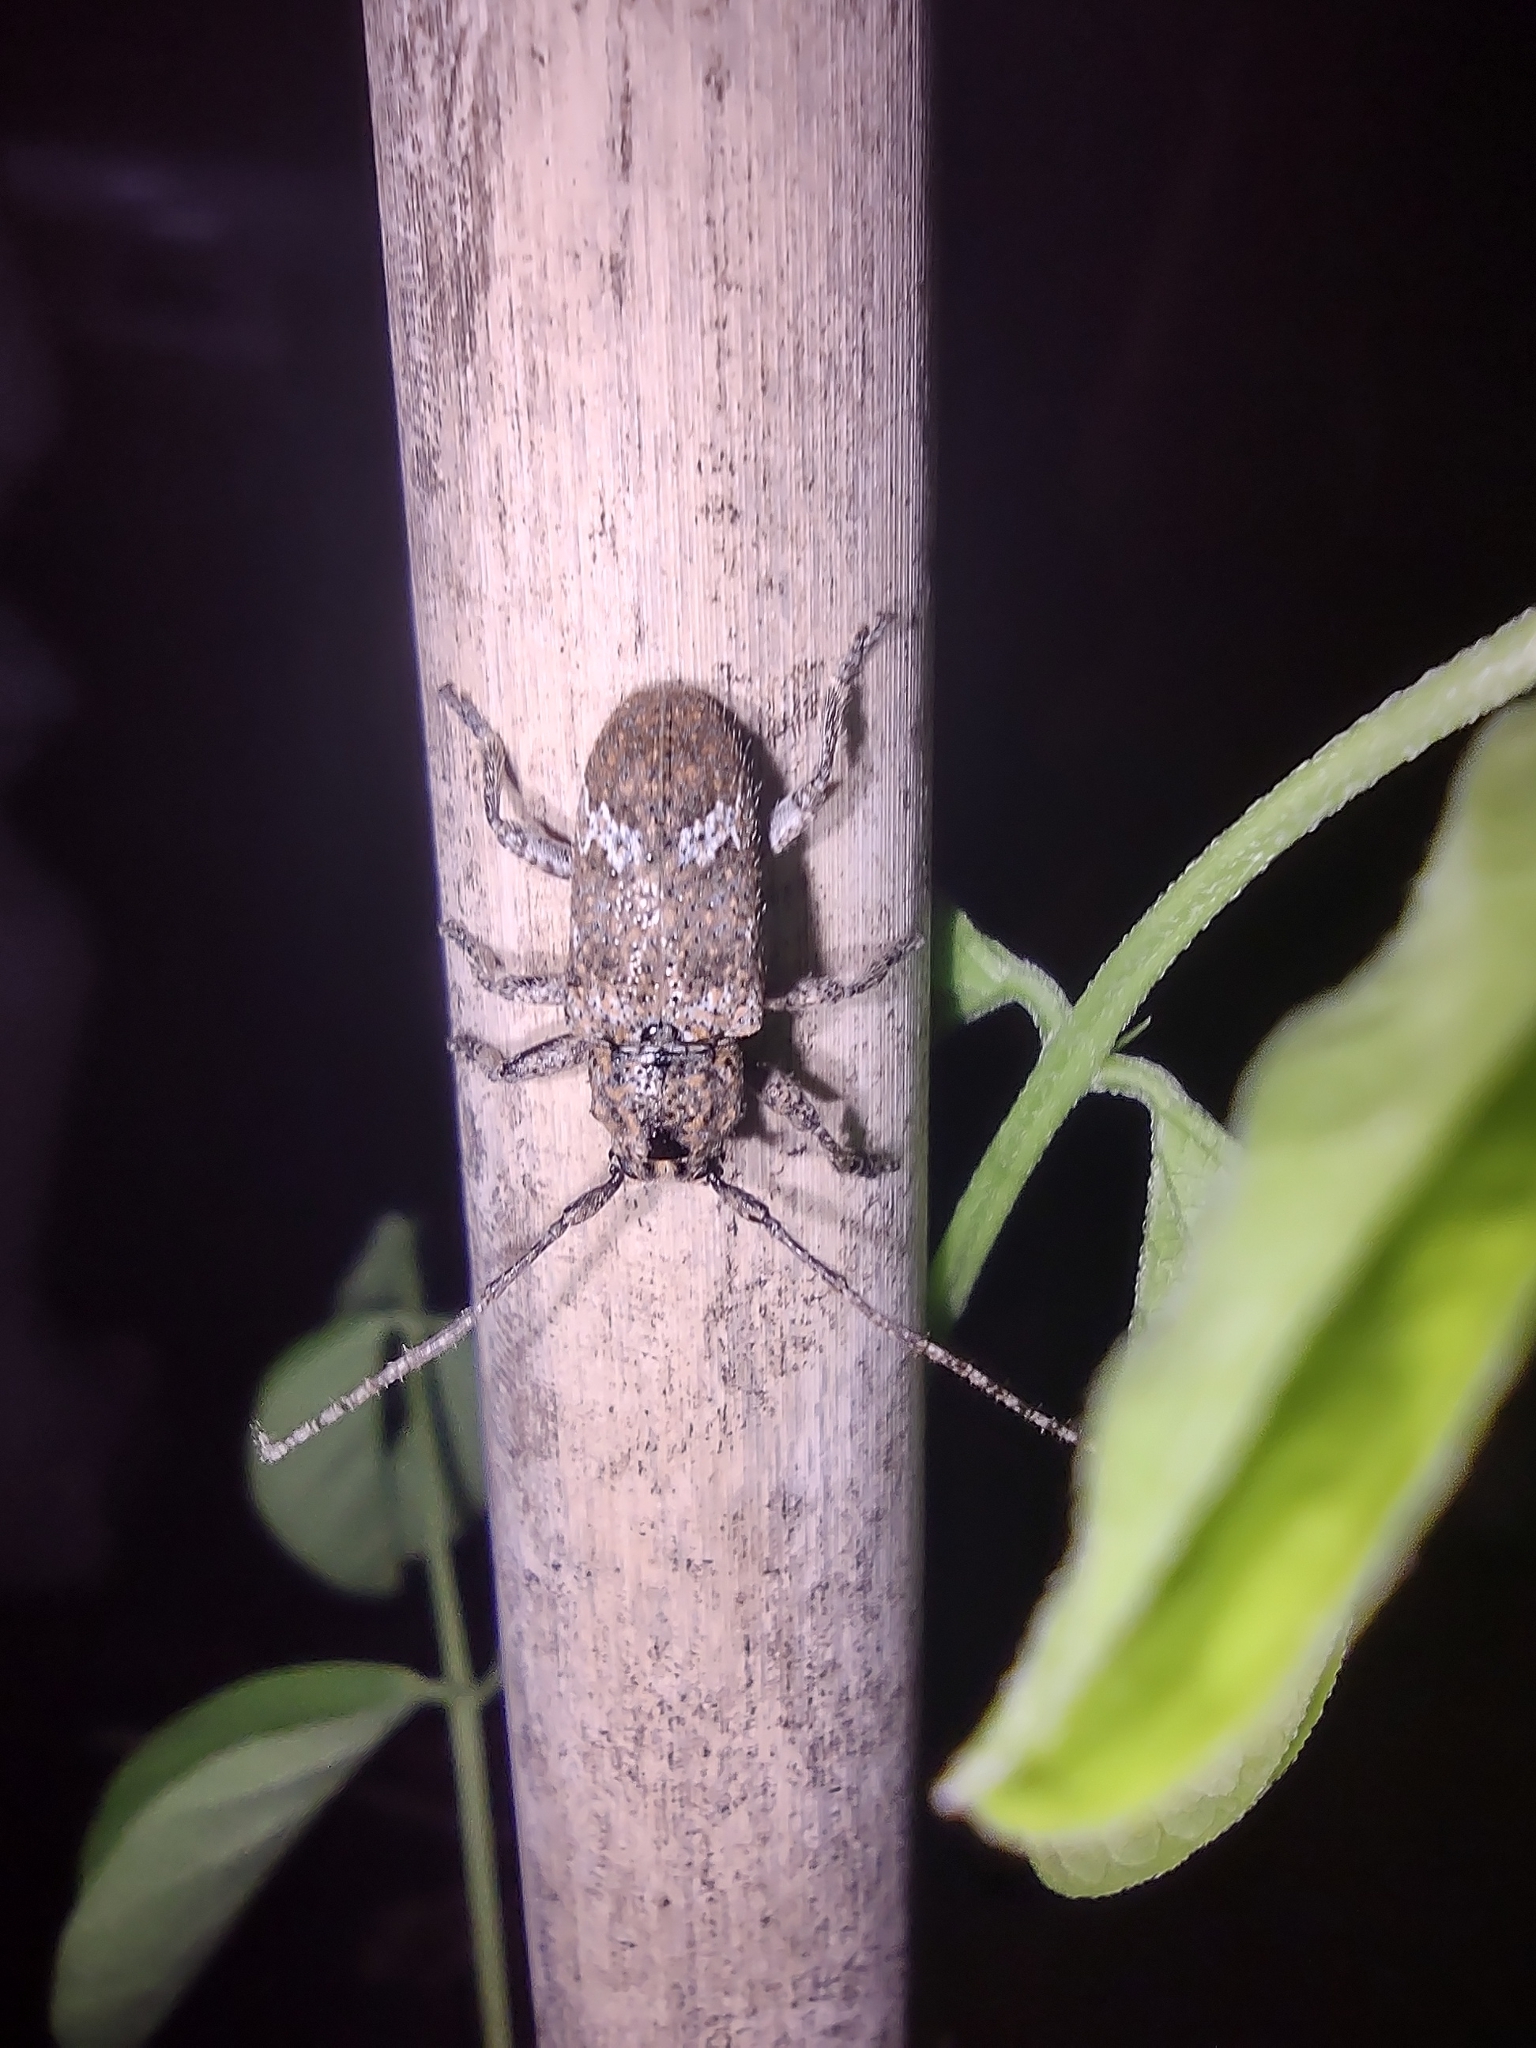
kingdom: Animalia
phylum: Arthropoda
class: Insecta
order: Coleoptera
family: Cerambycidae
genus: Rhytiphora
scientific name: Rhytiphora bankii
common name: Prosoplus long horned beetle
